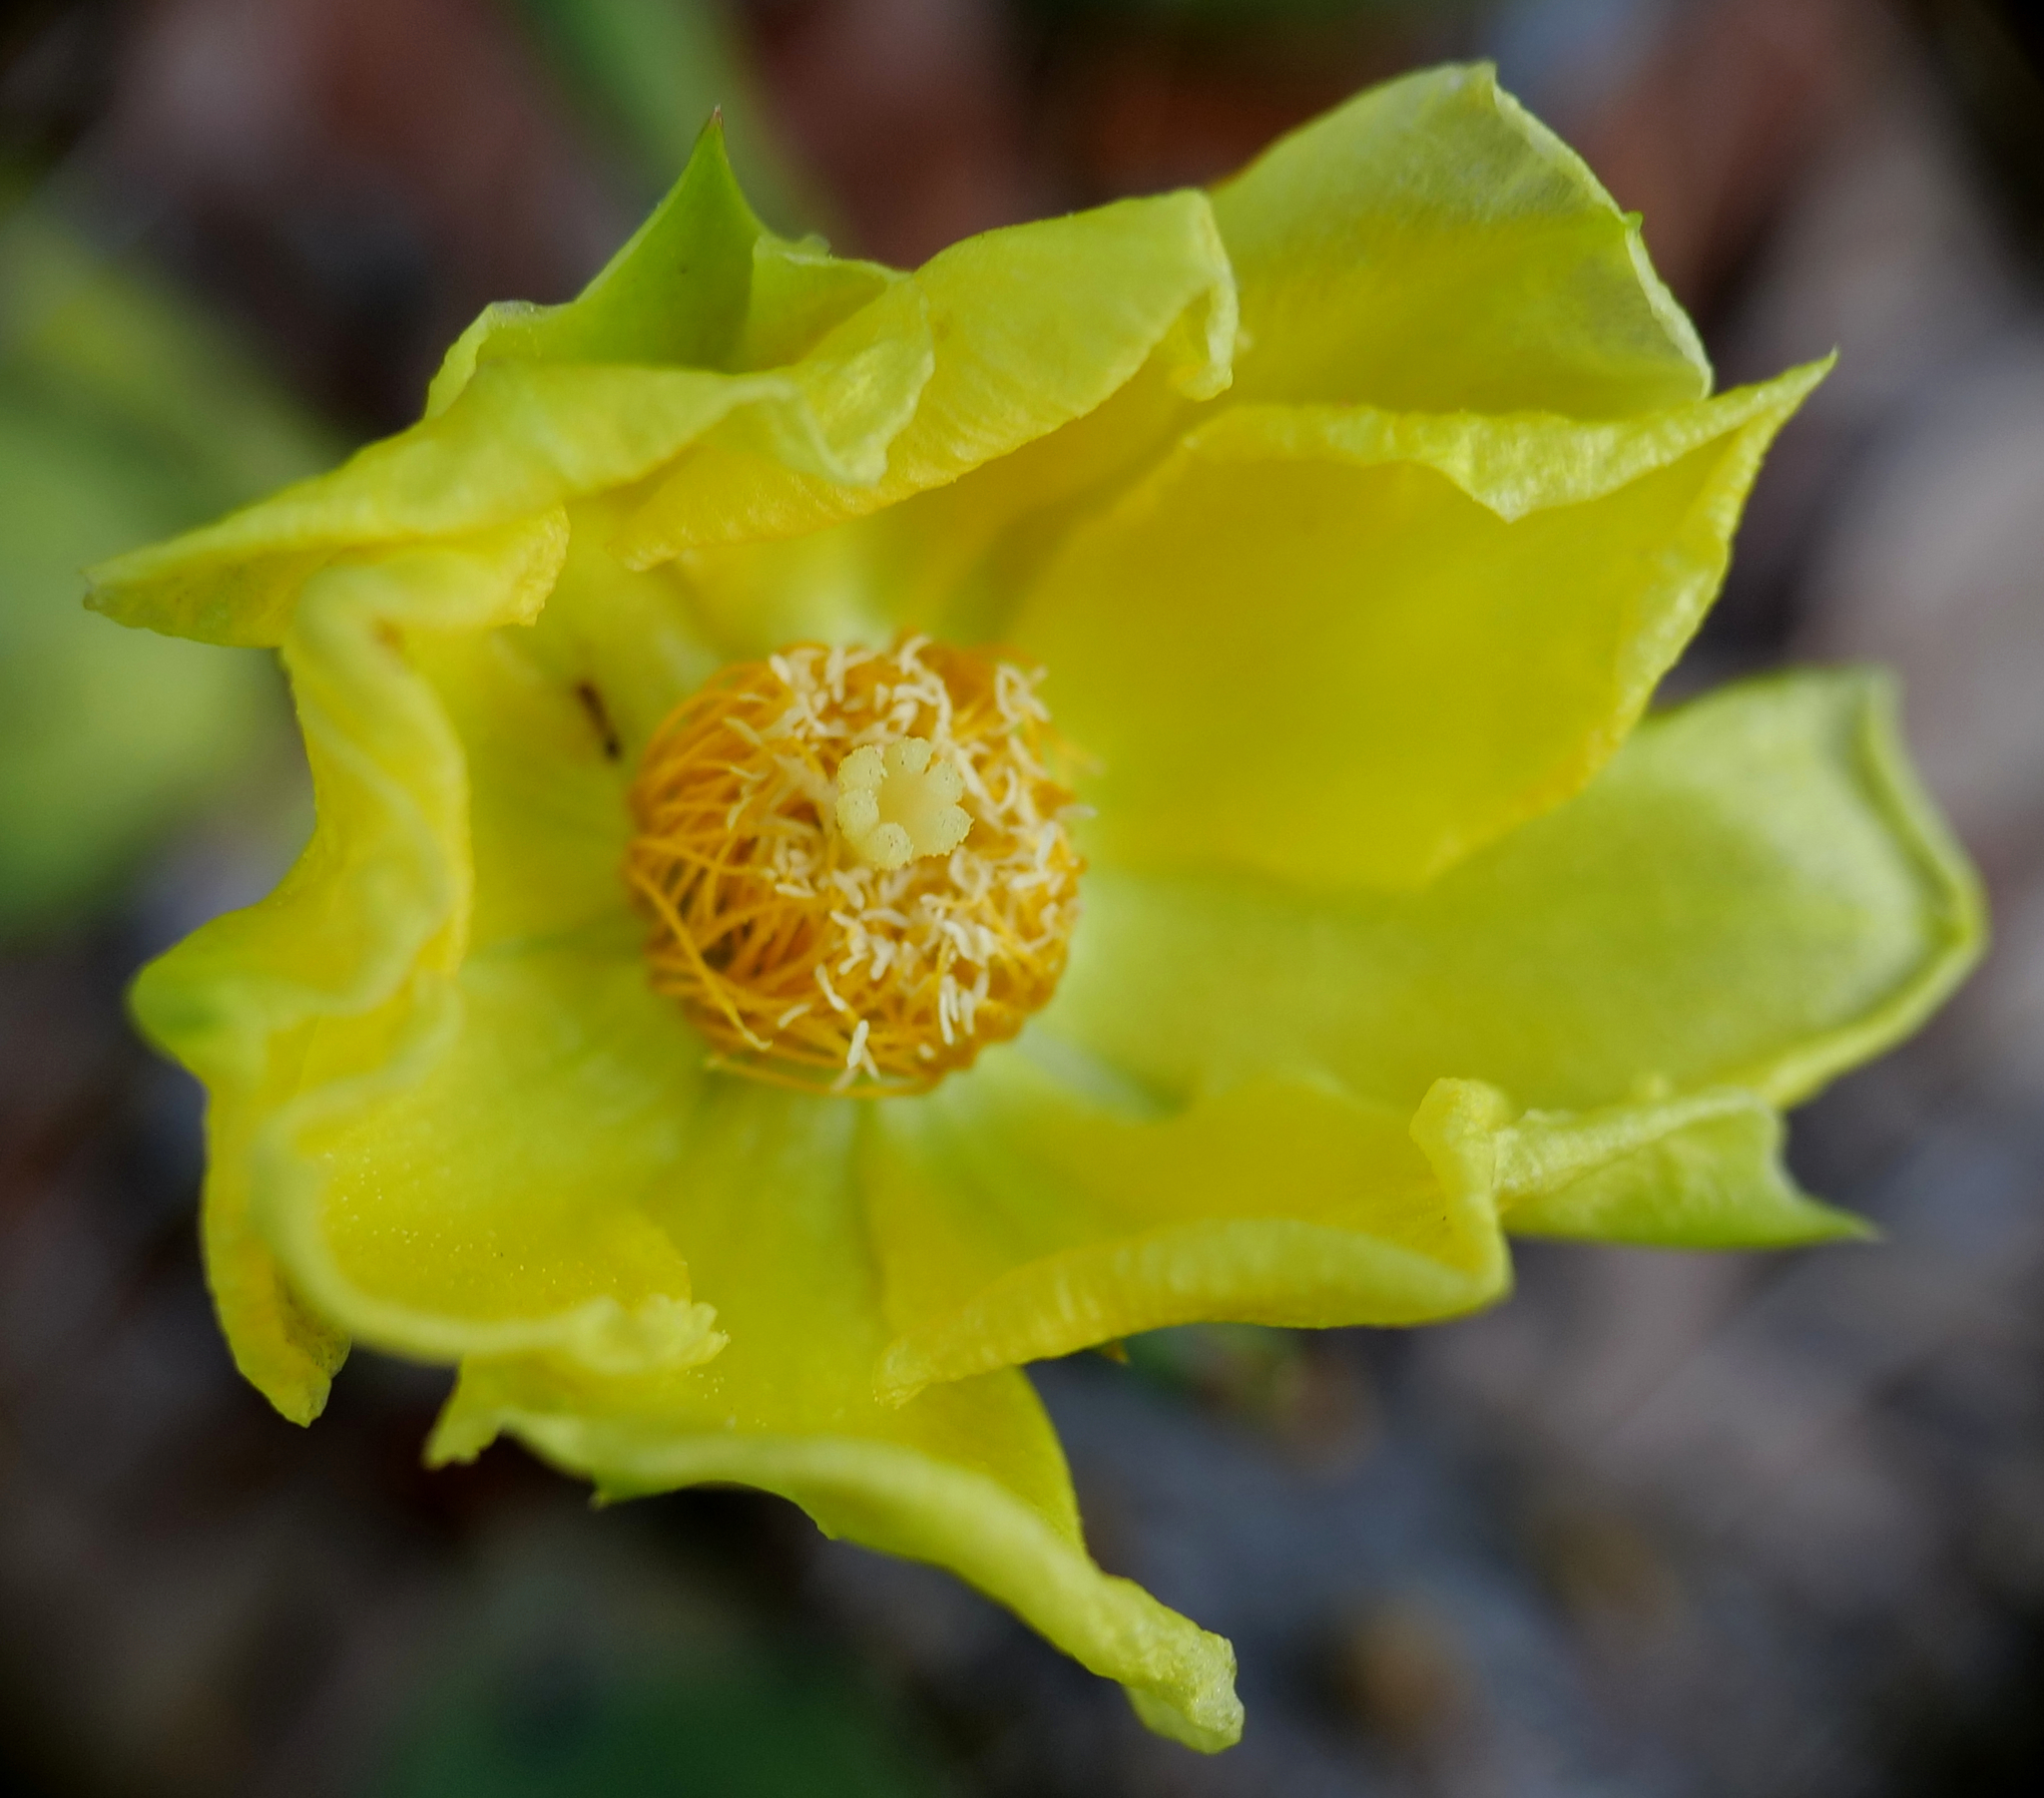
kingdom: Plantae
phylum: Tracheophyta
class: Magnoliopsida
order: Caryophyllales
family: Cactaceae
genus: Opuntia
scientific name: Opuntia austrina
